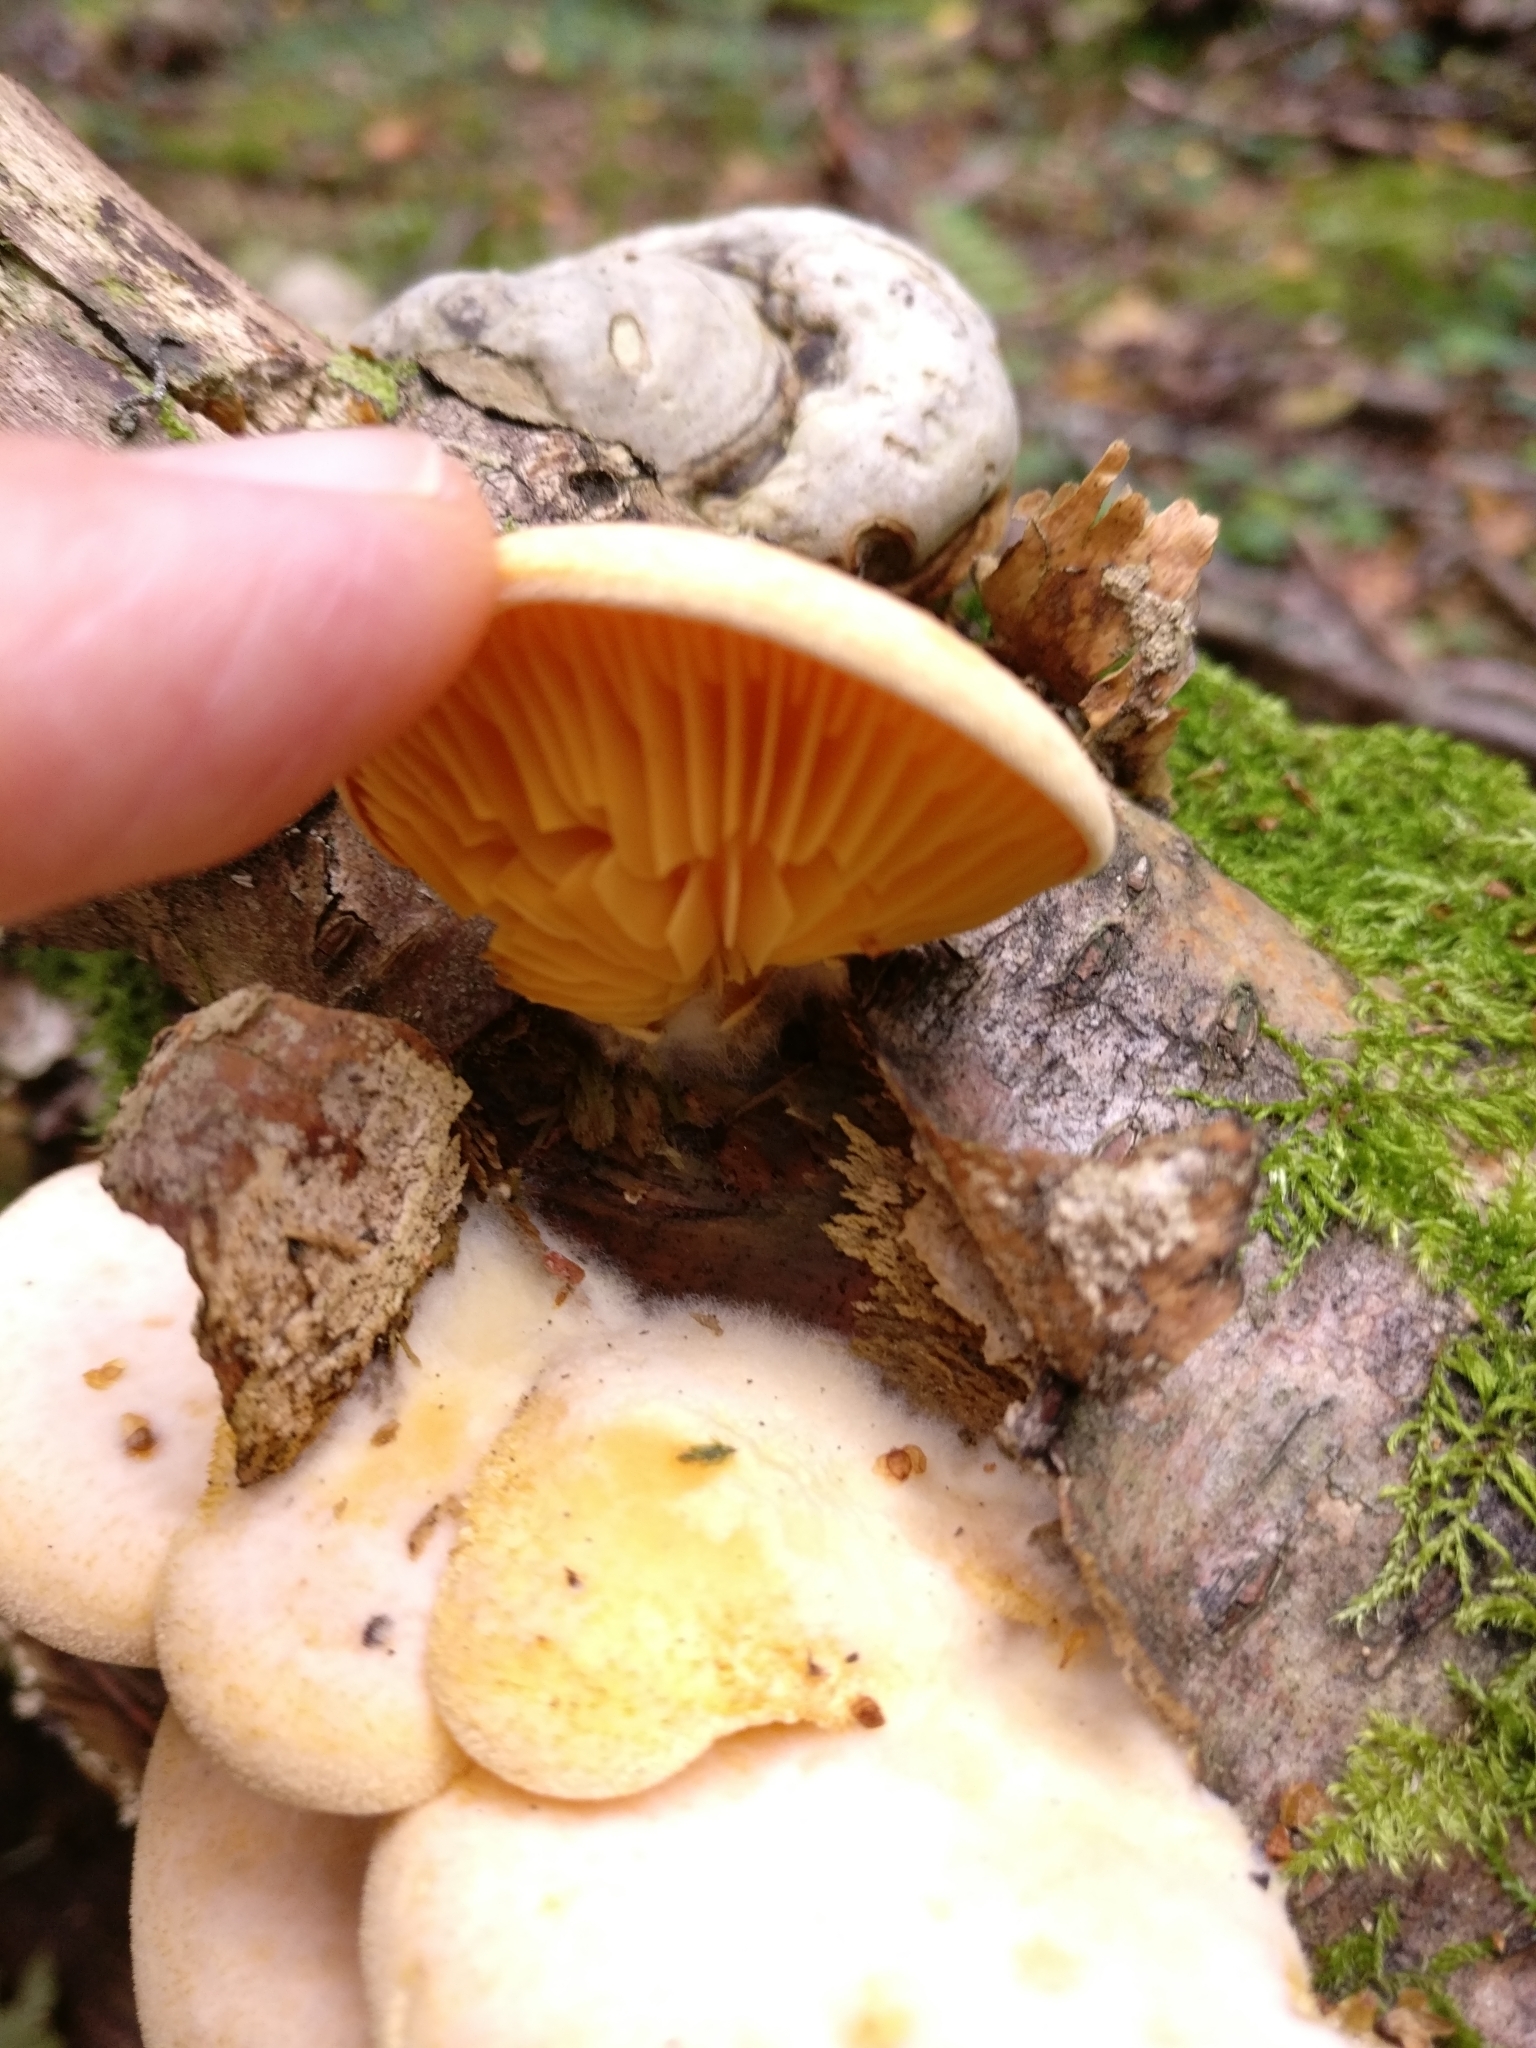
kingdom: Fungi
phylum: Basidiomycota
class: Agaricomycetes
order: Agaricales
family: Phyllotopsidaceae
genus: Phyllotopsis
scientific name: Phyllotopsis nidulans
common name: Orange mock oyster
